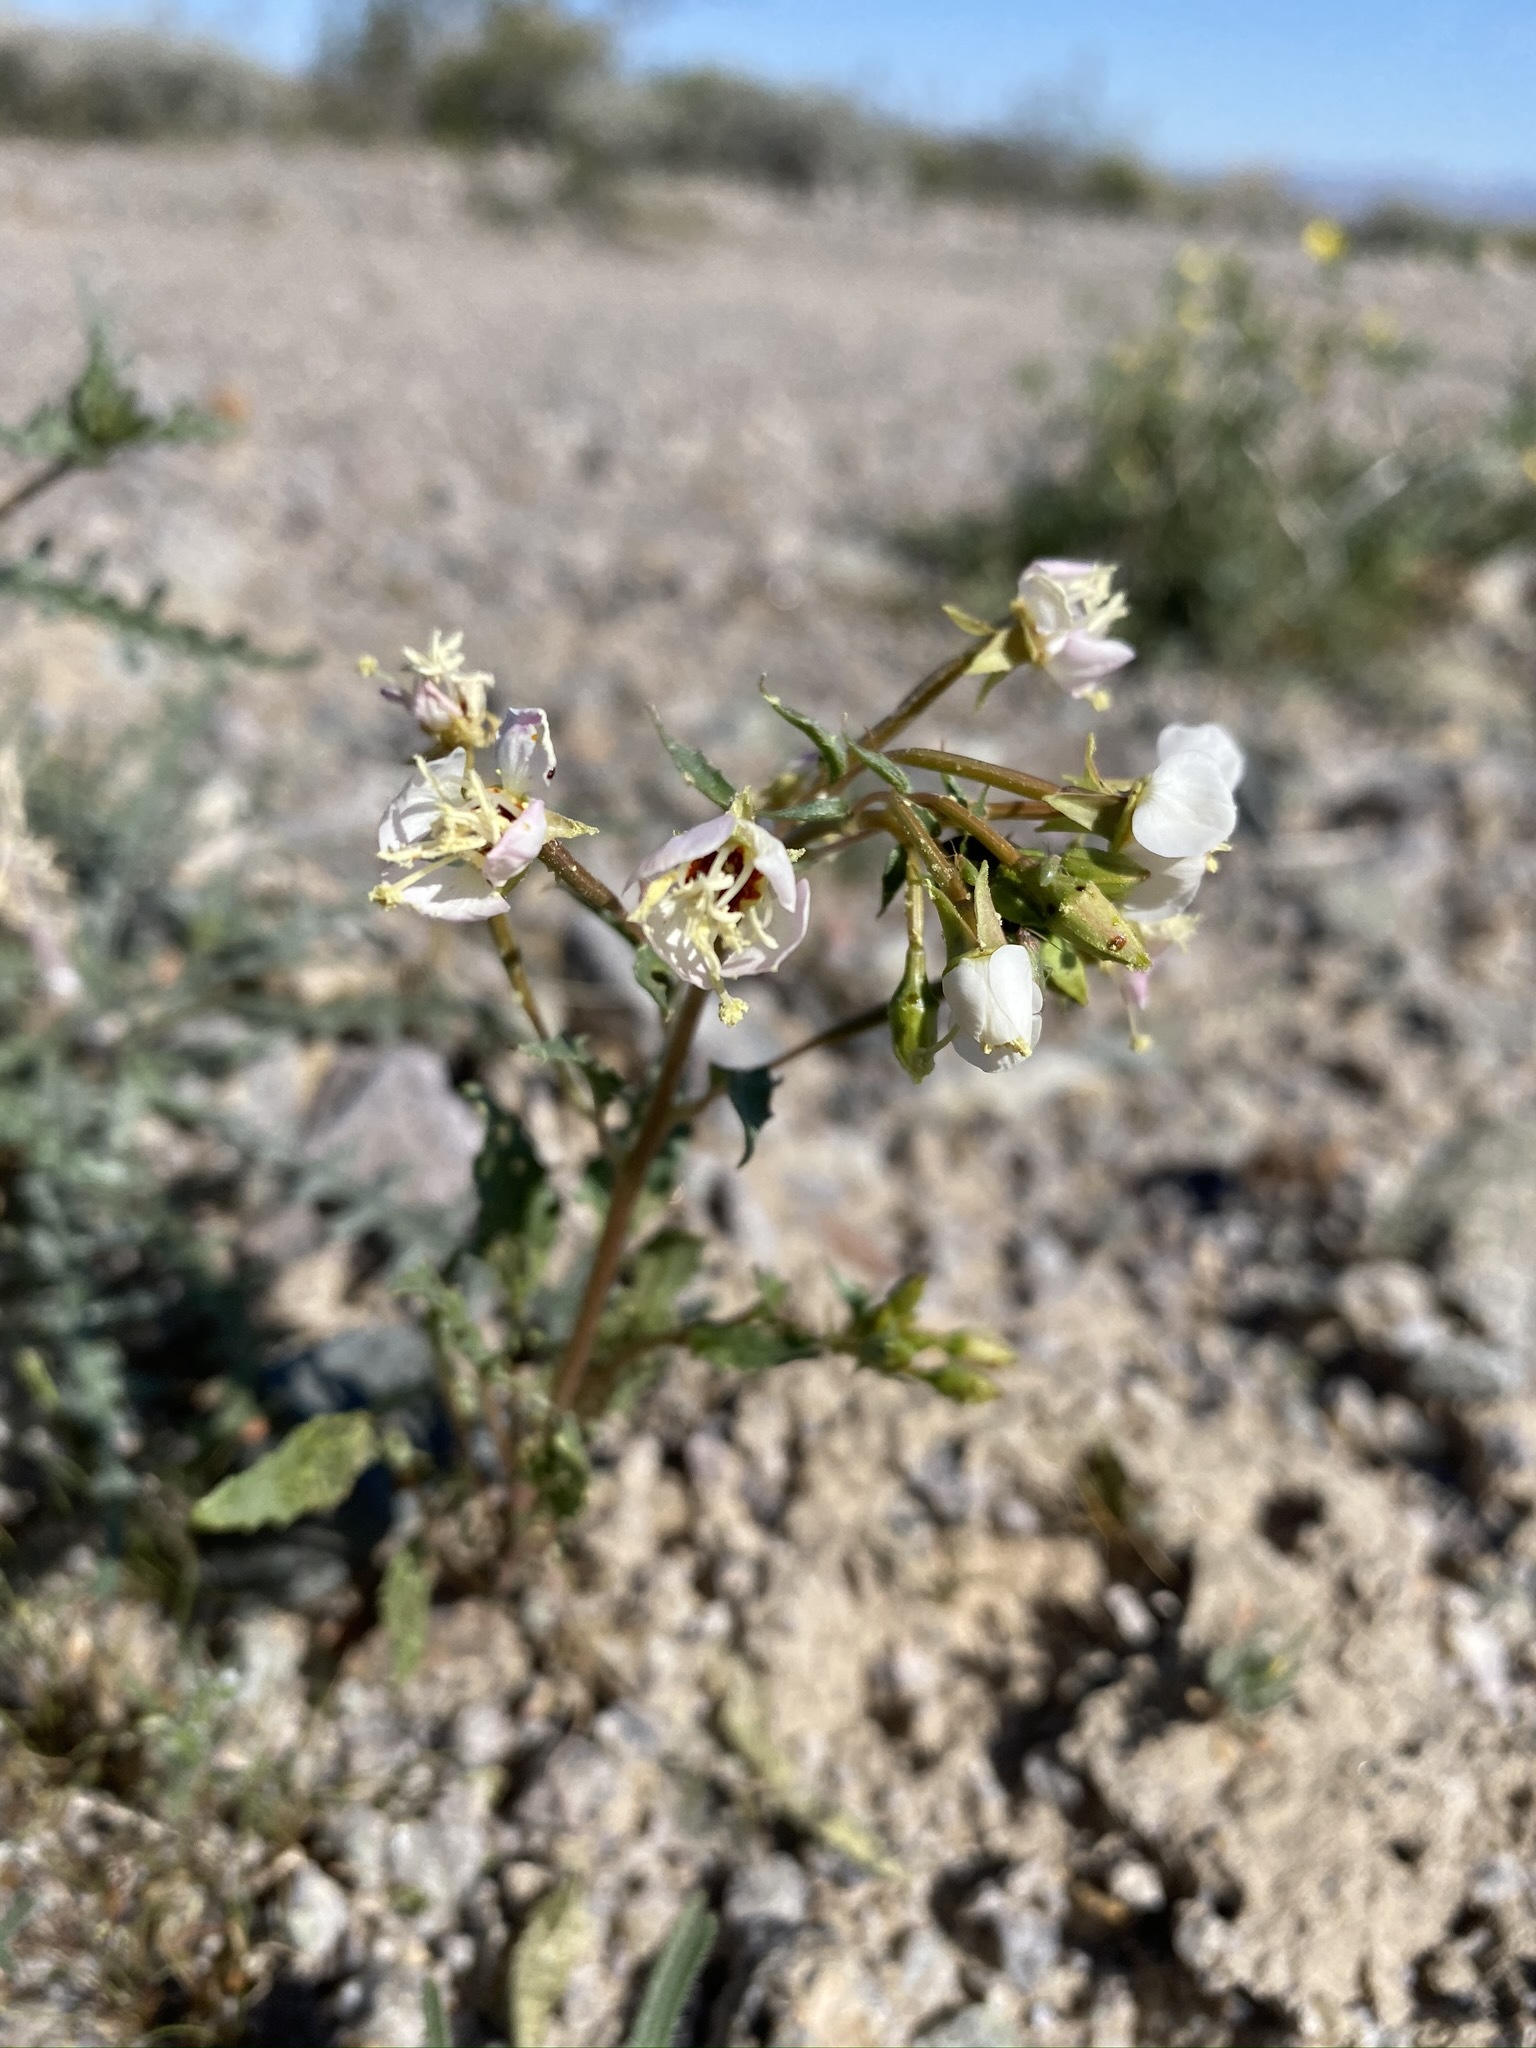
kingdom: Plantae
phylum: Tracheophyta
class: Magnoliopsida
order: Myrtales
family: Onagraceae
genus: Chylismia
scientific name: Chylismia claviformis
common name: Browneyes
